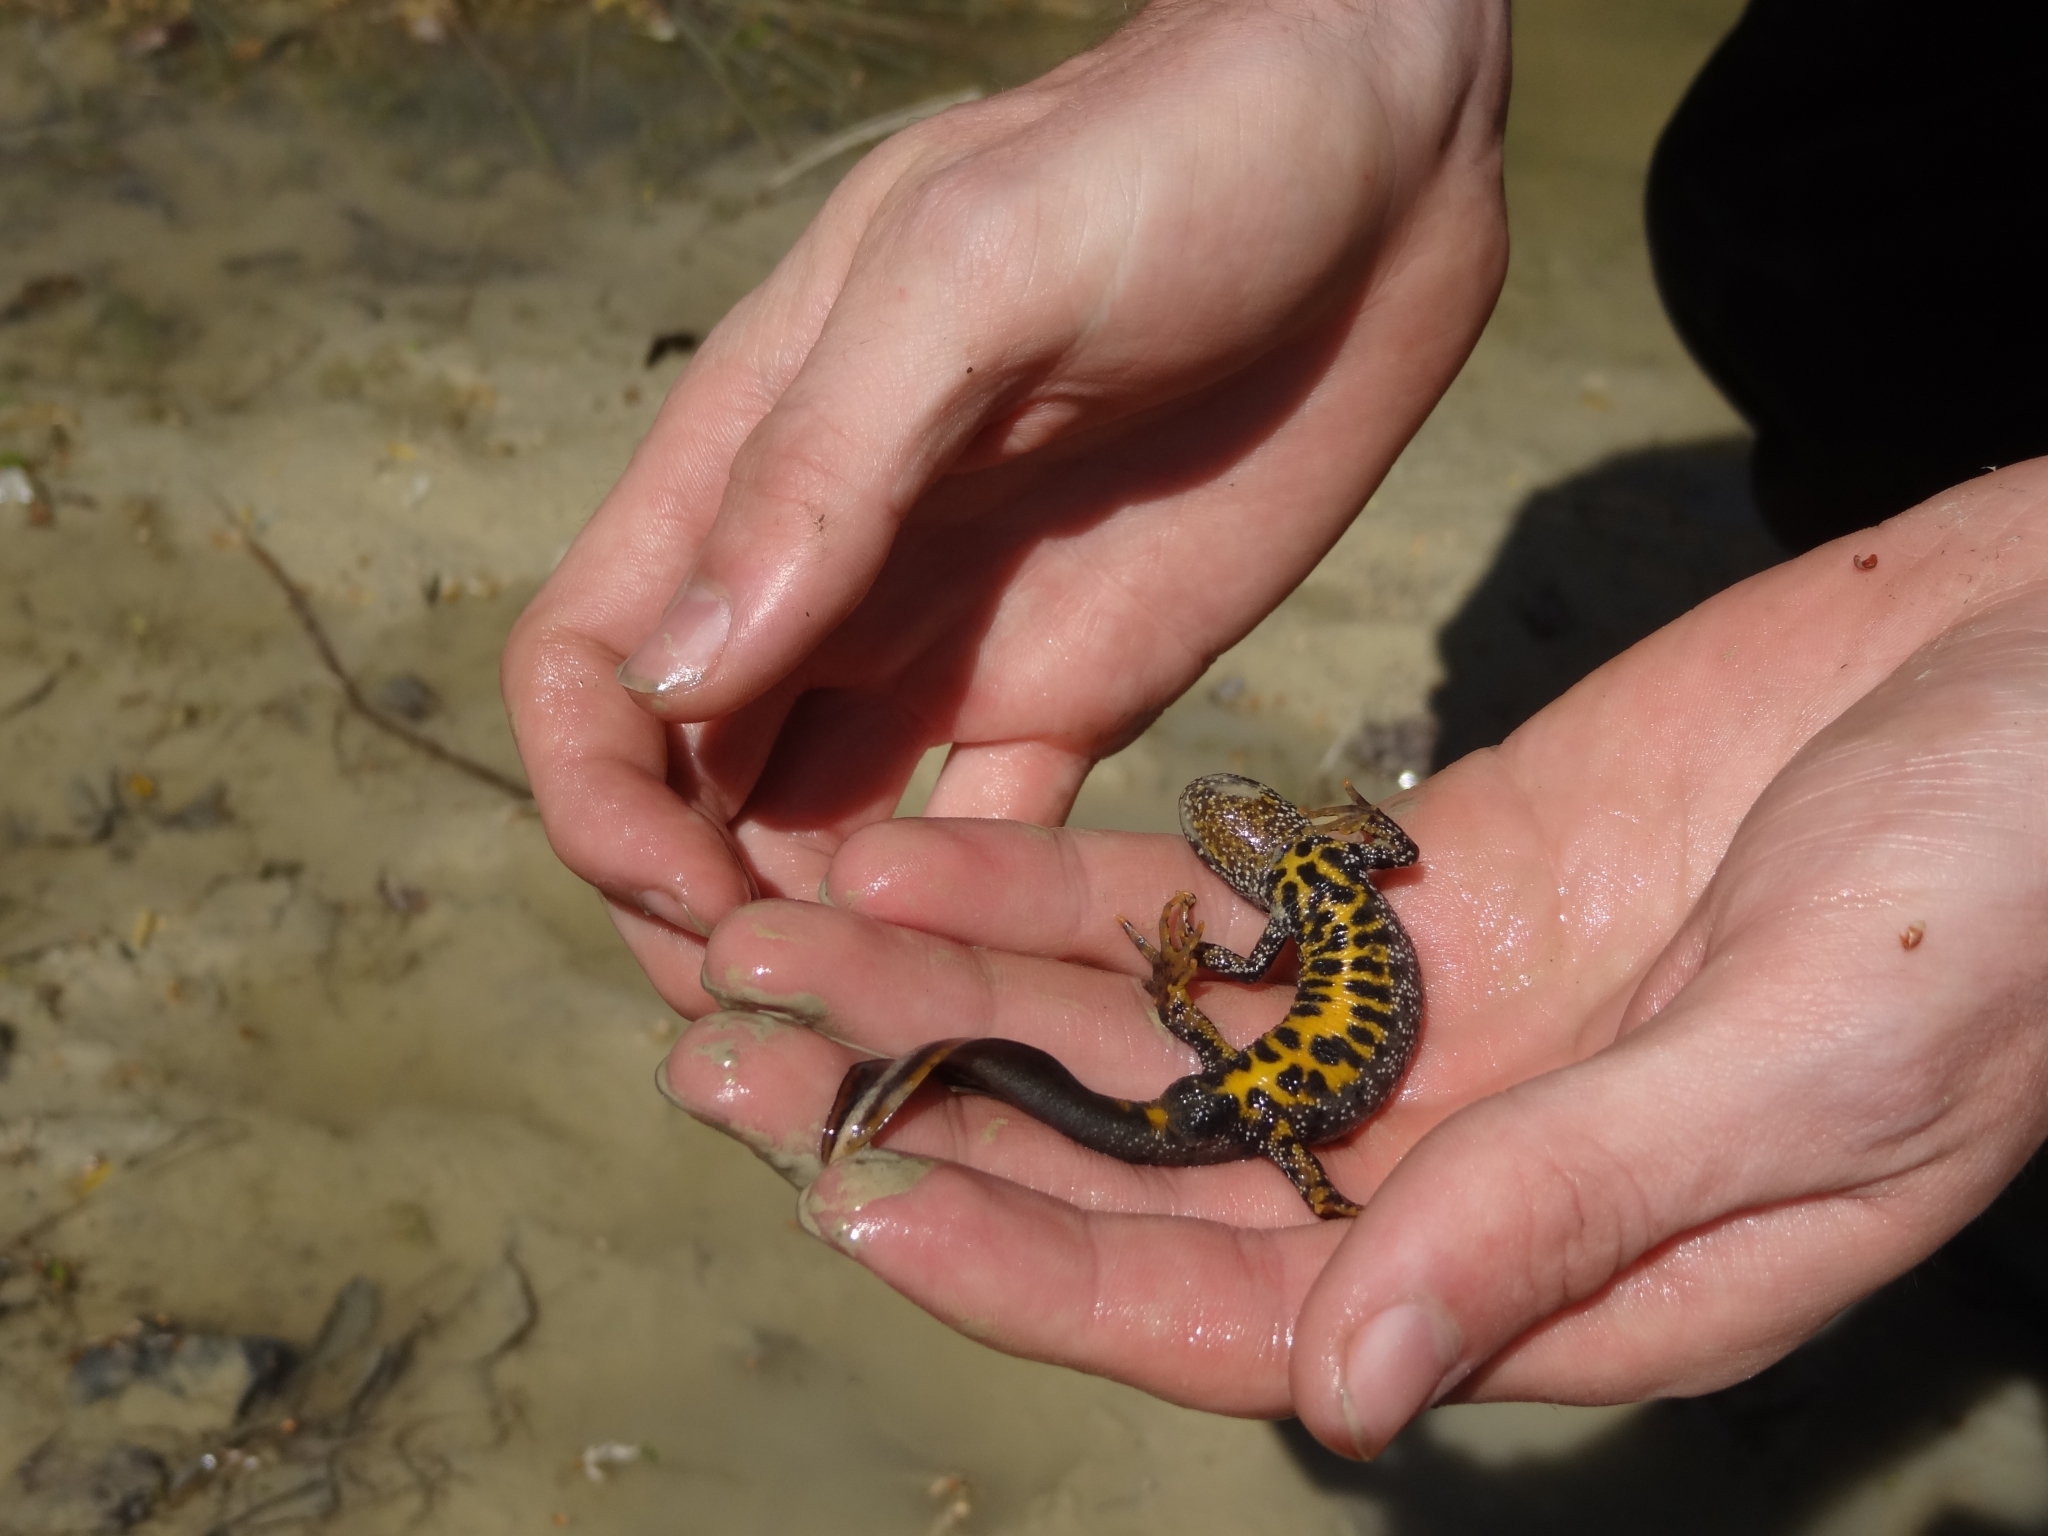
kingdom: Animalia
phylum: Chordata
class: Amphibia
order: Caudata
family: Salamandridae
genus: Triturus
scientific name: Triturus cristatus
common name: Crested newt
